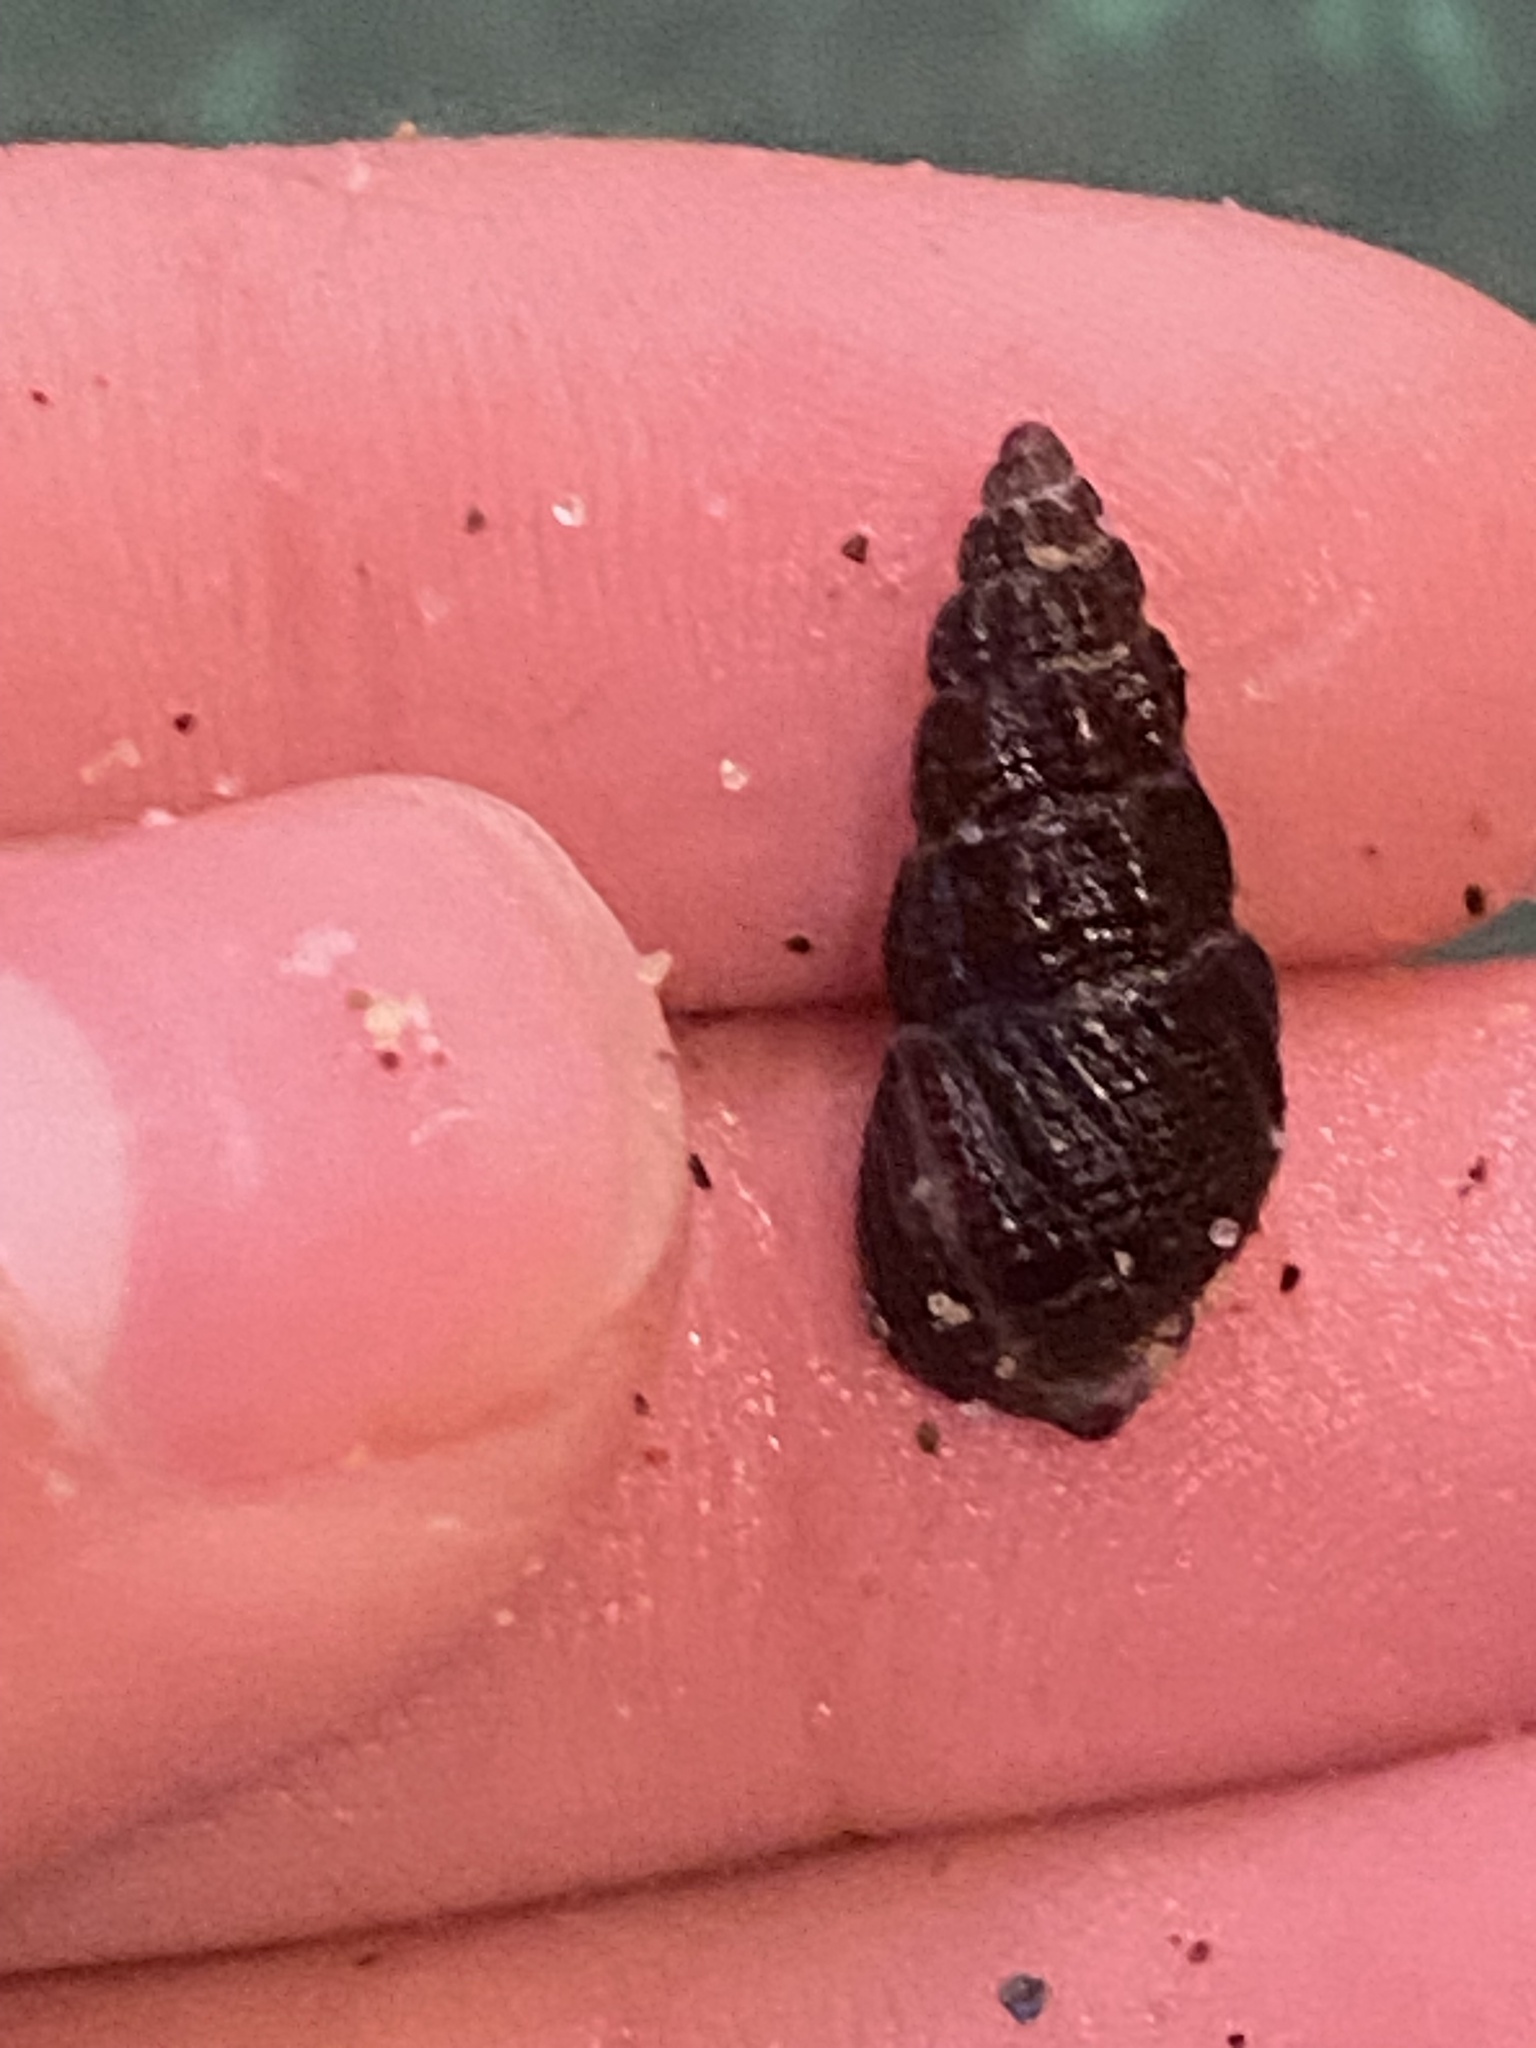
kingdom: Animalia
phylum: Mollusca
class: Gastropoda
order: Neogastropoda
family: Nassariidae
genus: Nassarius
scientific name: Nassarius mendicus
